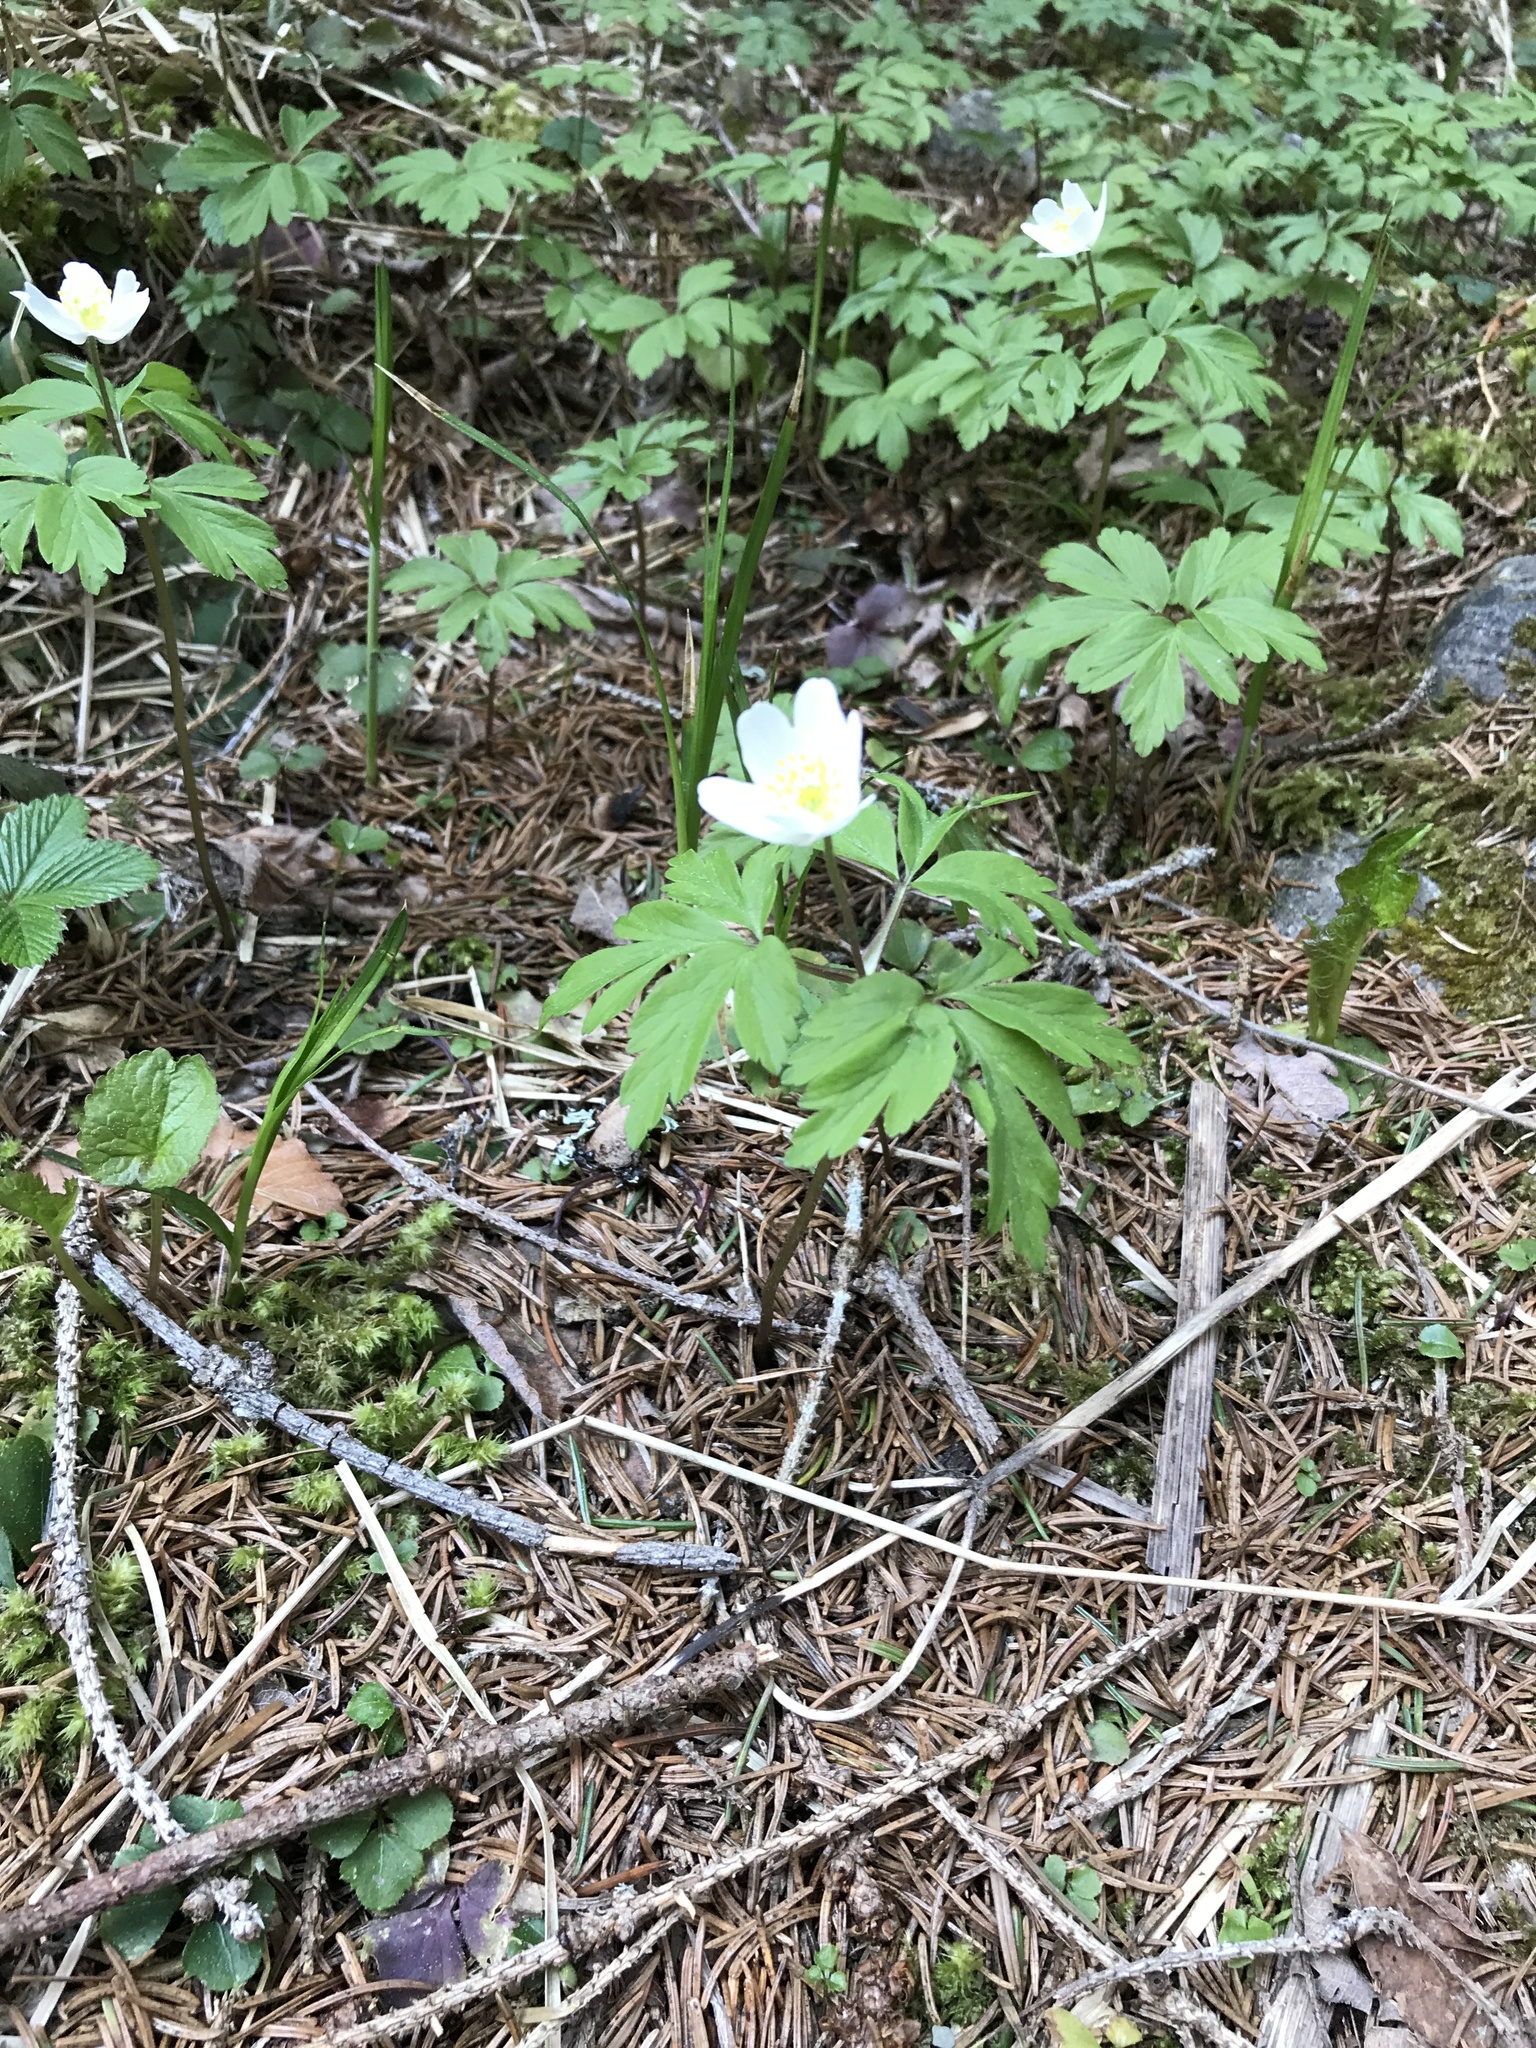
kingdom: Plantae
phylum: Tracheophyta
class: Magnoliopsida
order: Ranunculales
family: Ranunculaceae
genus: Anemone
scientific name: Anemone nemorosa
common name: Wood anemone
